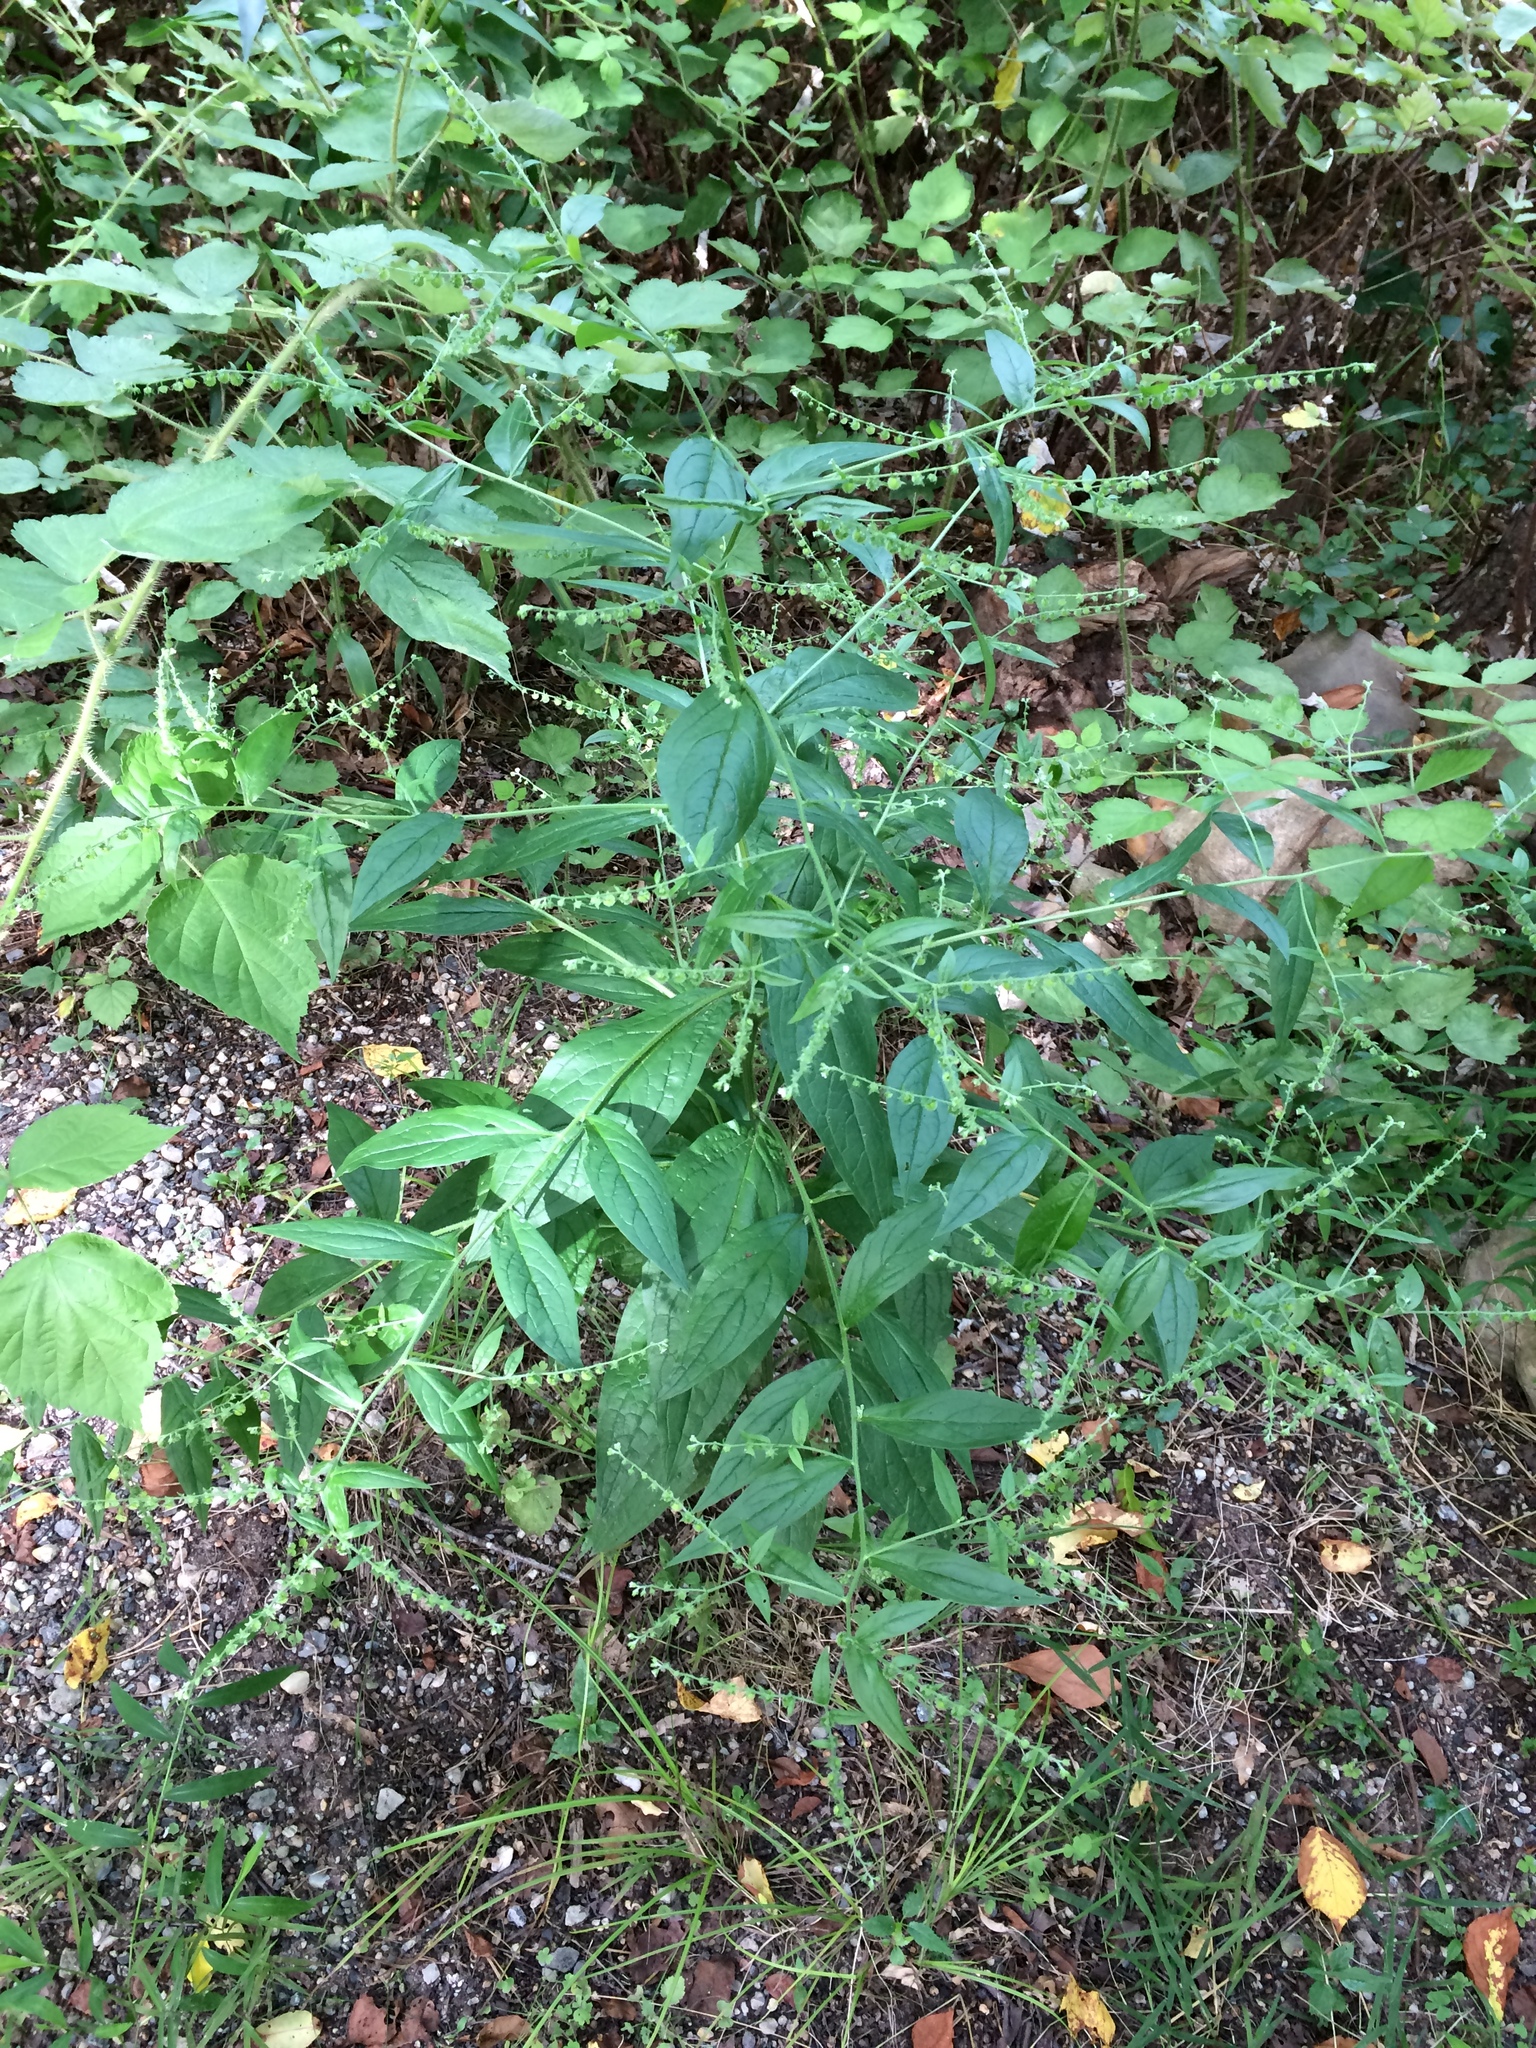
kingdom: Plantae
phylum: Tracheophyta
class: Magnoliopsida
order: Boraginales
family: Boraginaceae
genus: Hackelia
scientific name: Hackelia virginiana
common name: Beggar's-lice
